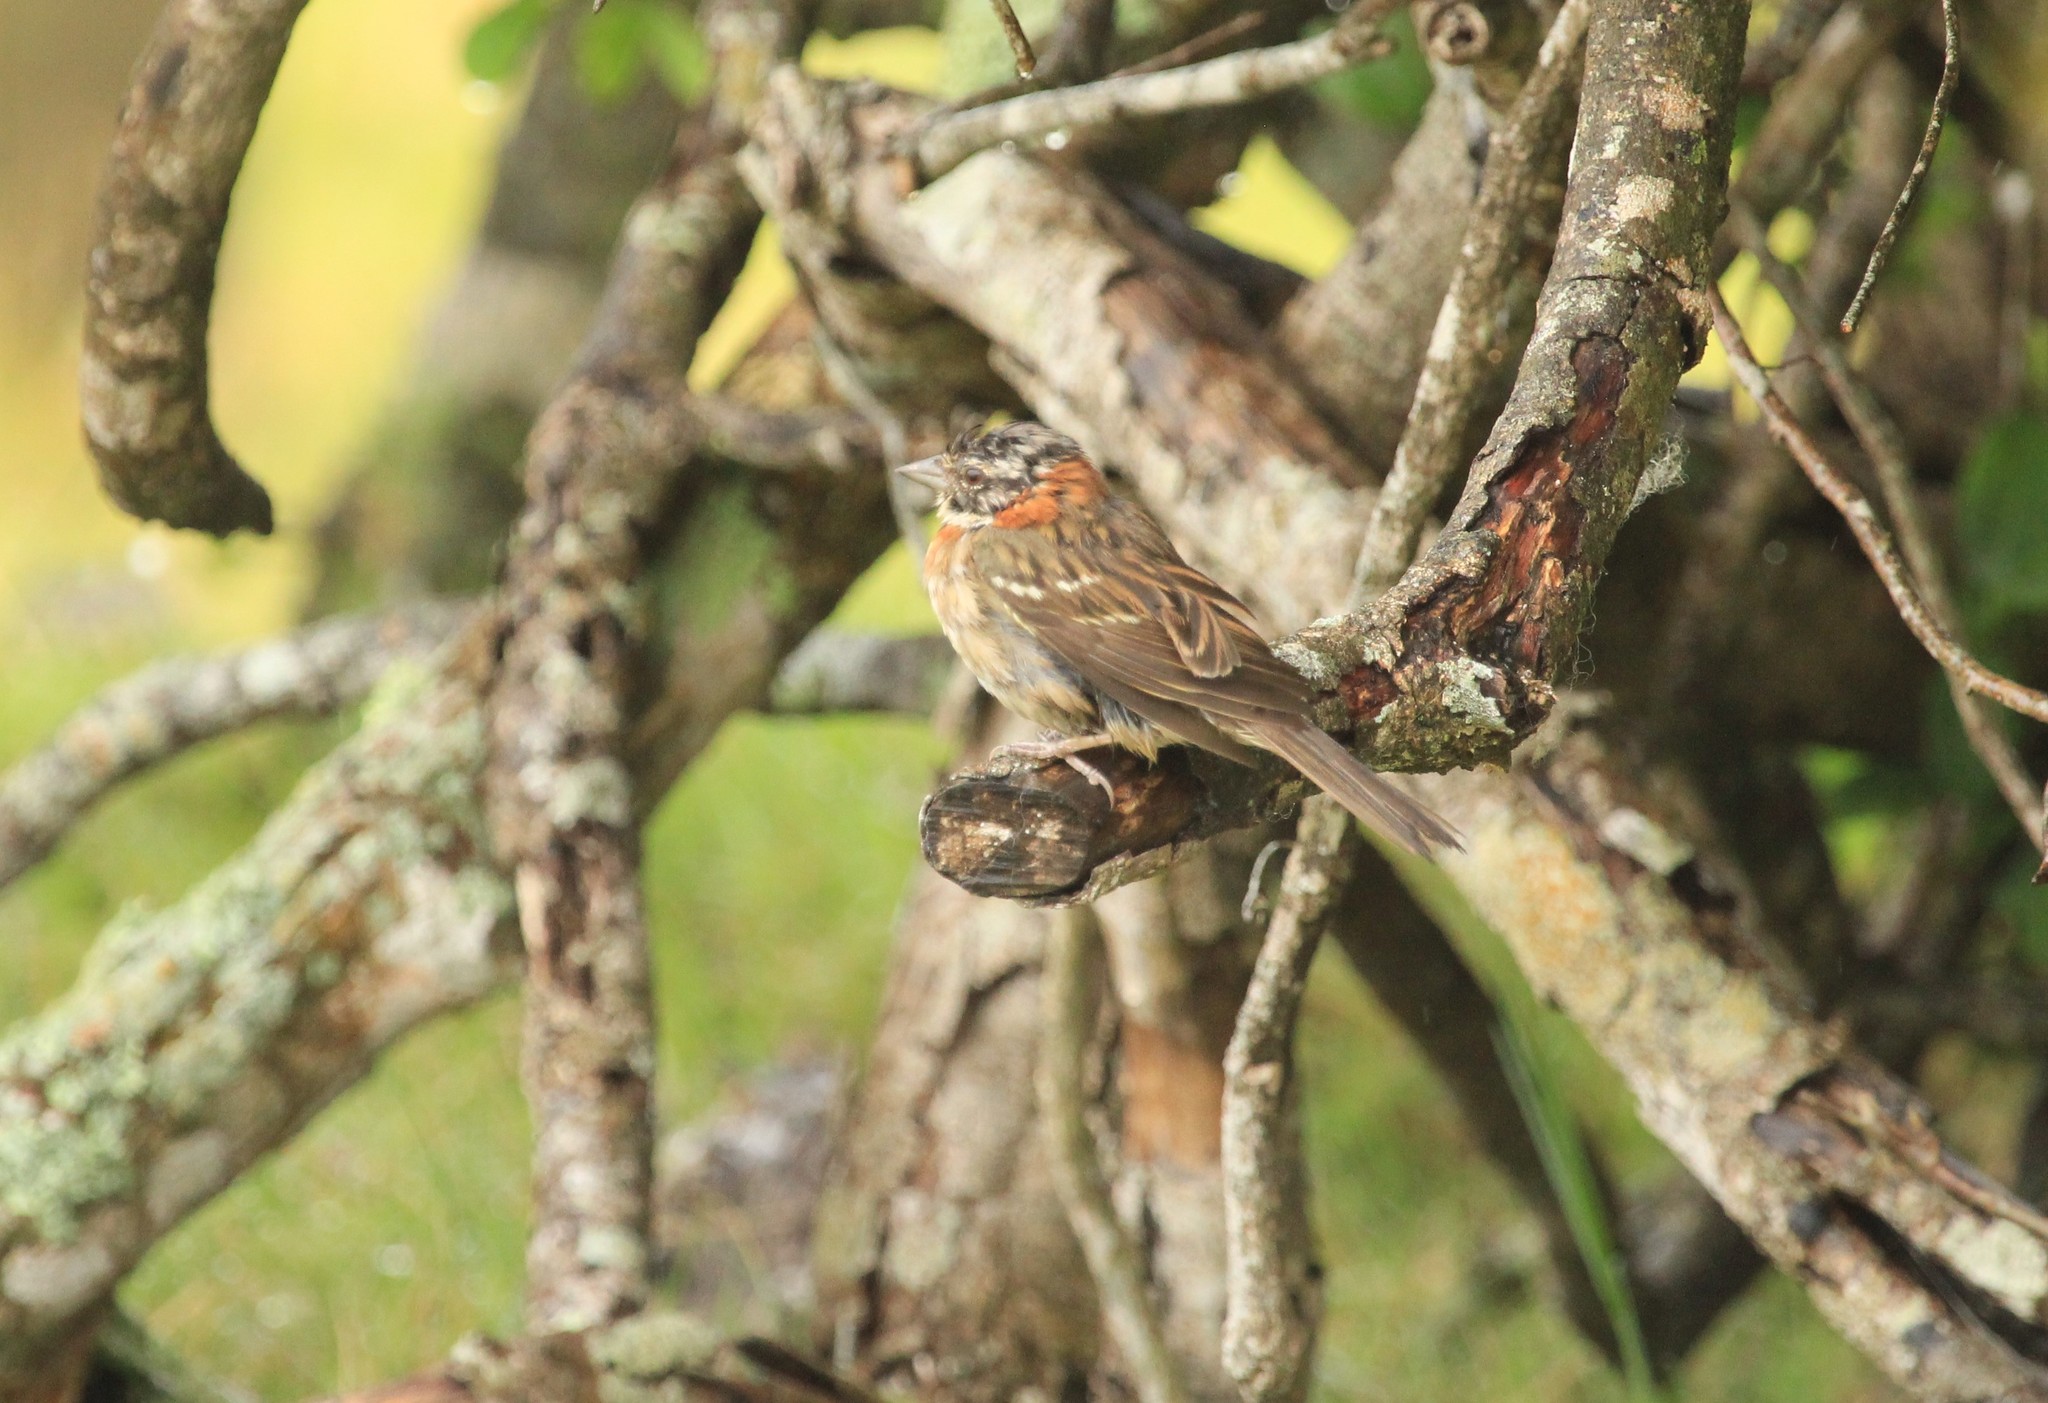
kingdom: Animalia
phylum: Chordata
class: Aves
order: Passeriformes
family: Passerellidae
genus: Zonotrichia
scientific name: Zonotrichia capensis
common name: Rufous-collared sparrow
